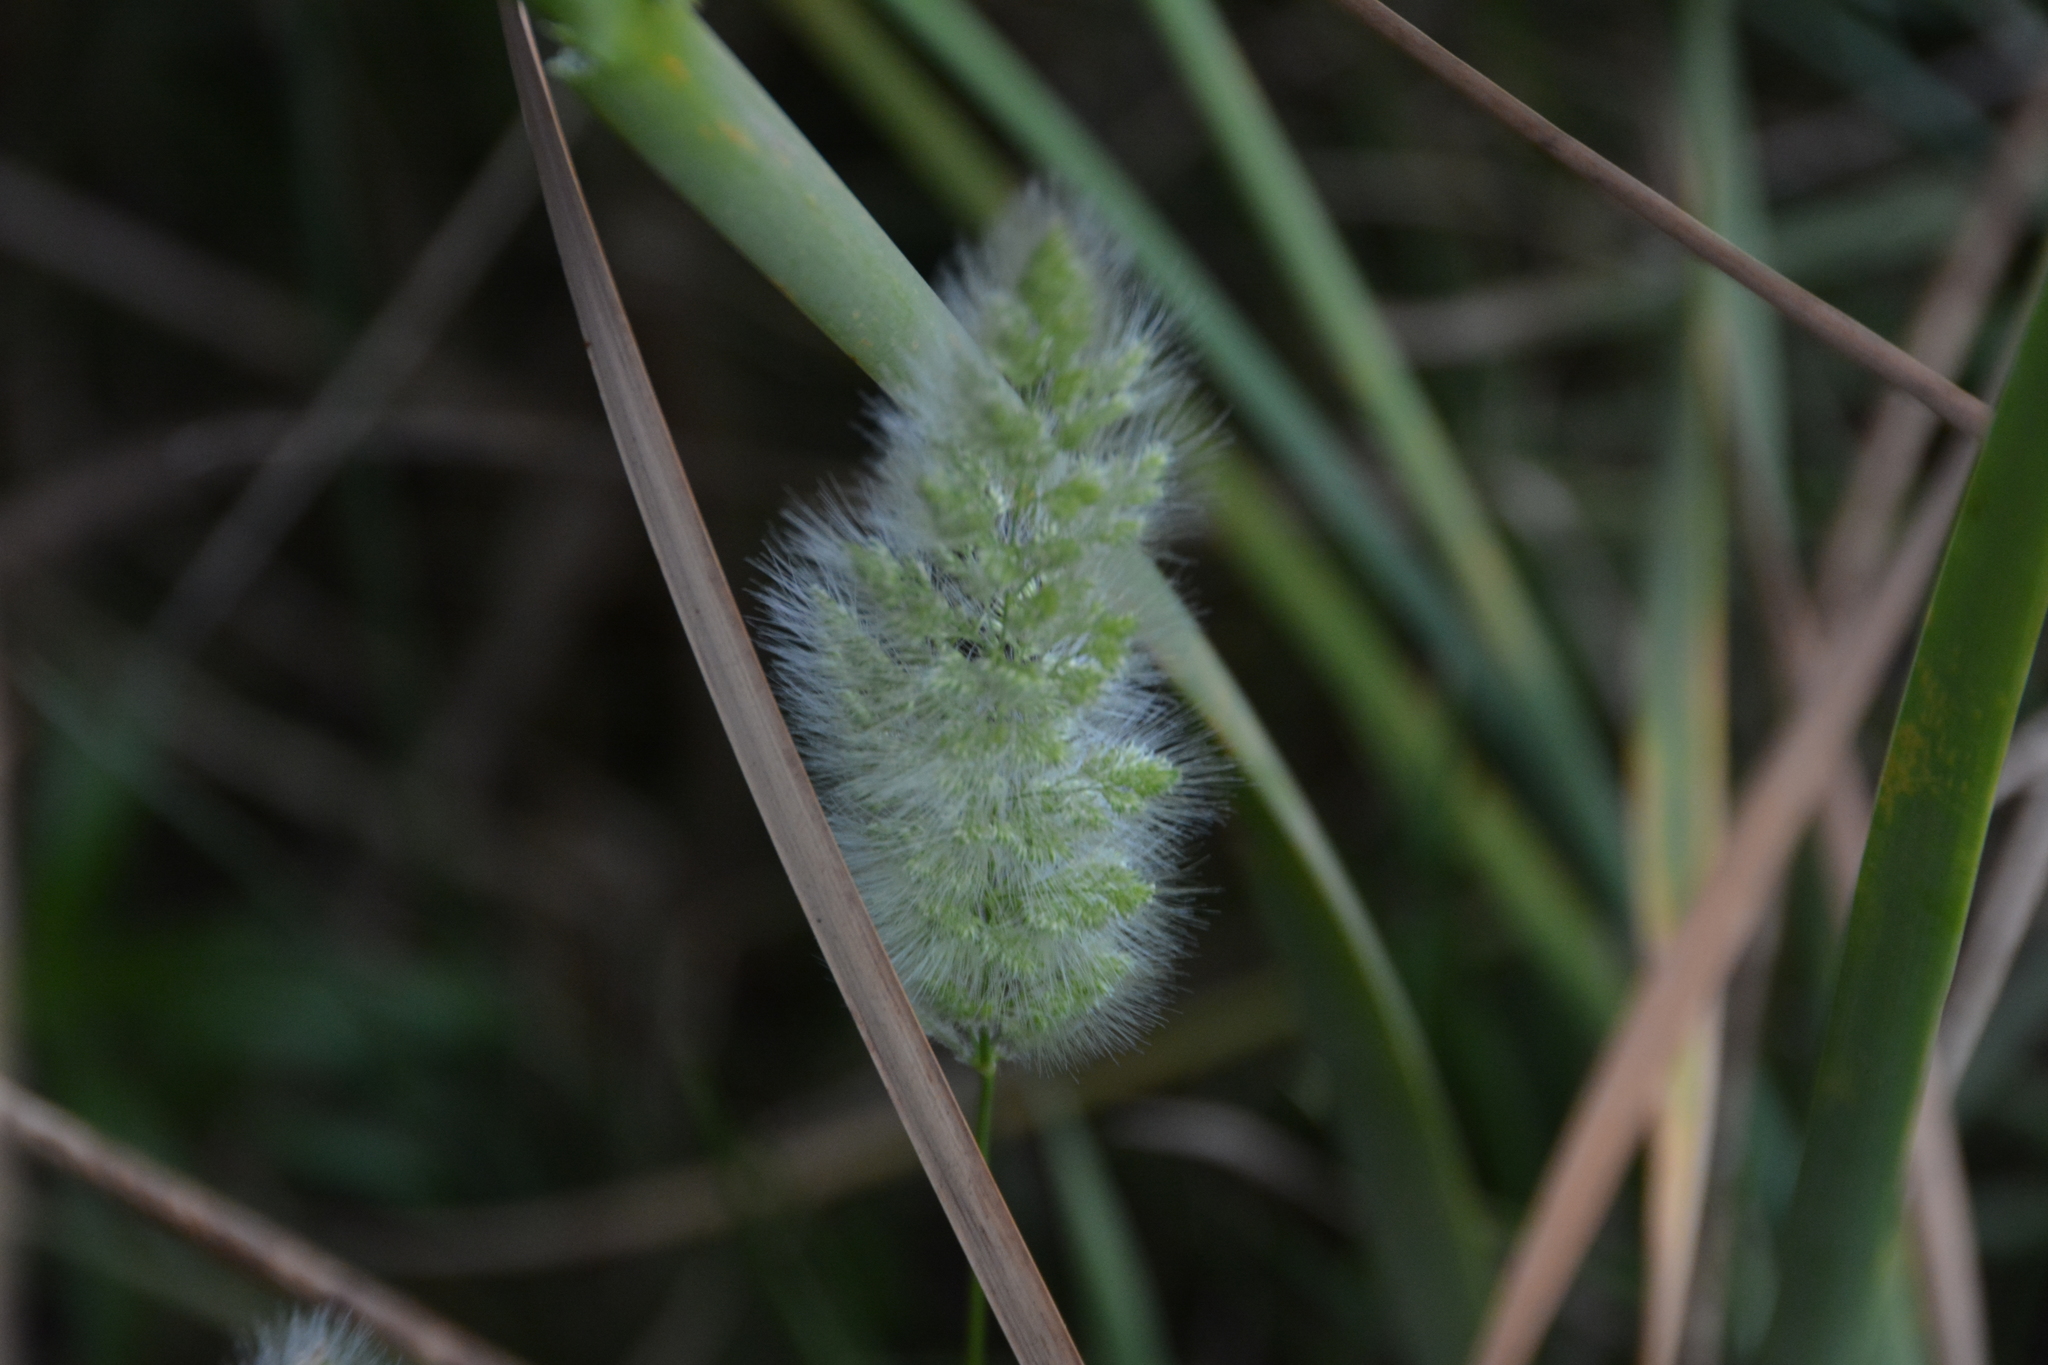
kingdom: Plantae
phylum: Tracheophyta
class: Liliopsida
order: Poales
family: Poaceae
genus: Polypogon
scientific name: Polypogon monspeliensis
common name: Annual rabbitsfoot grass
